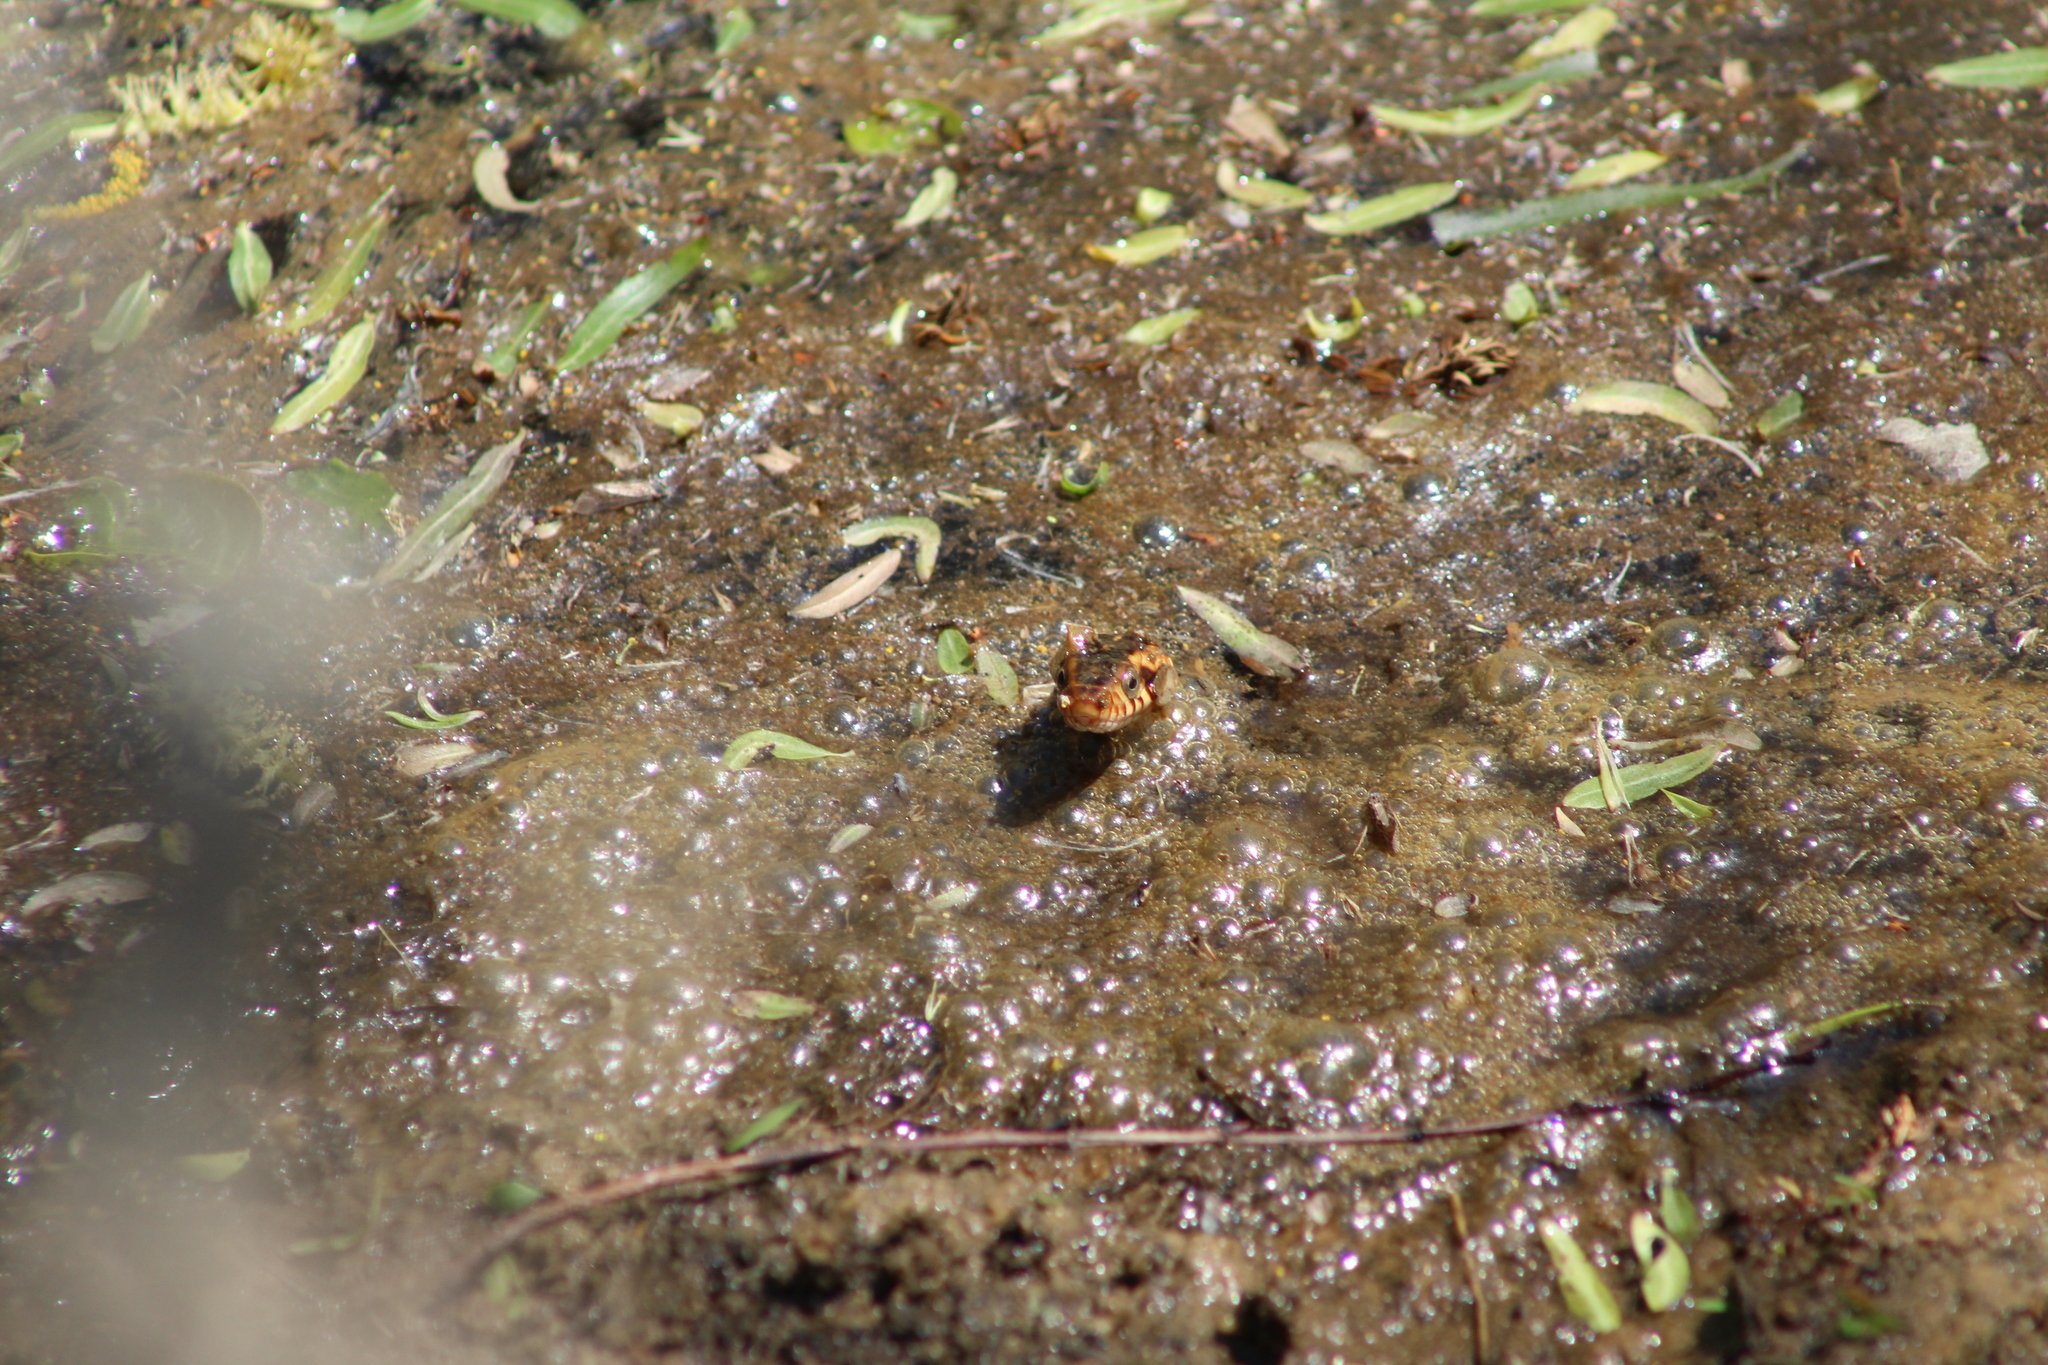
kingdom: Animalia
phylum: Chordata
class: Squamata
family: Colubridae
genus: Nerodia
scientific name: Nerodia fasciata
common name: Southern water snake
